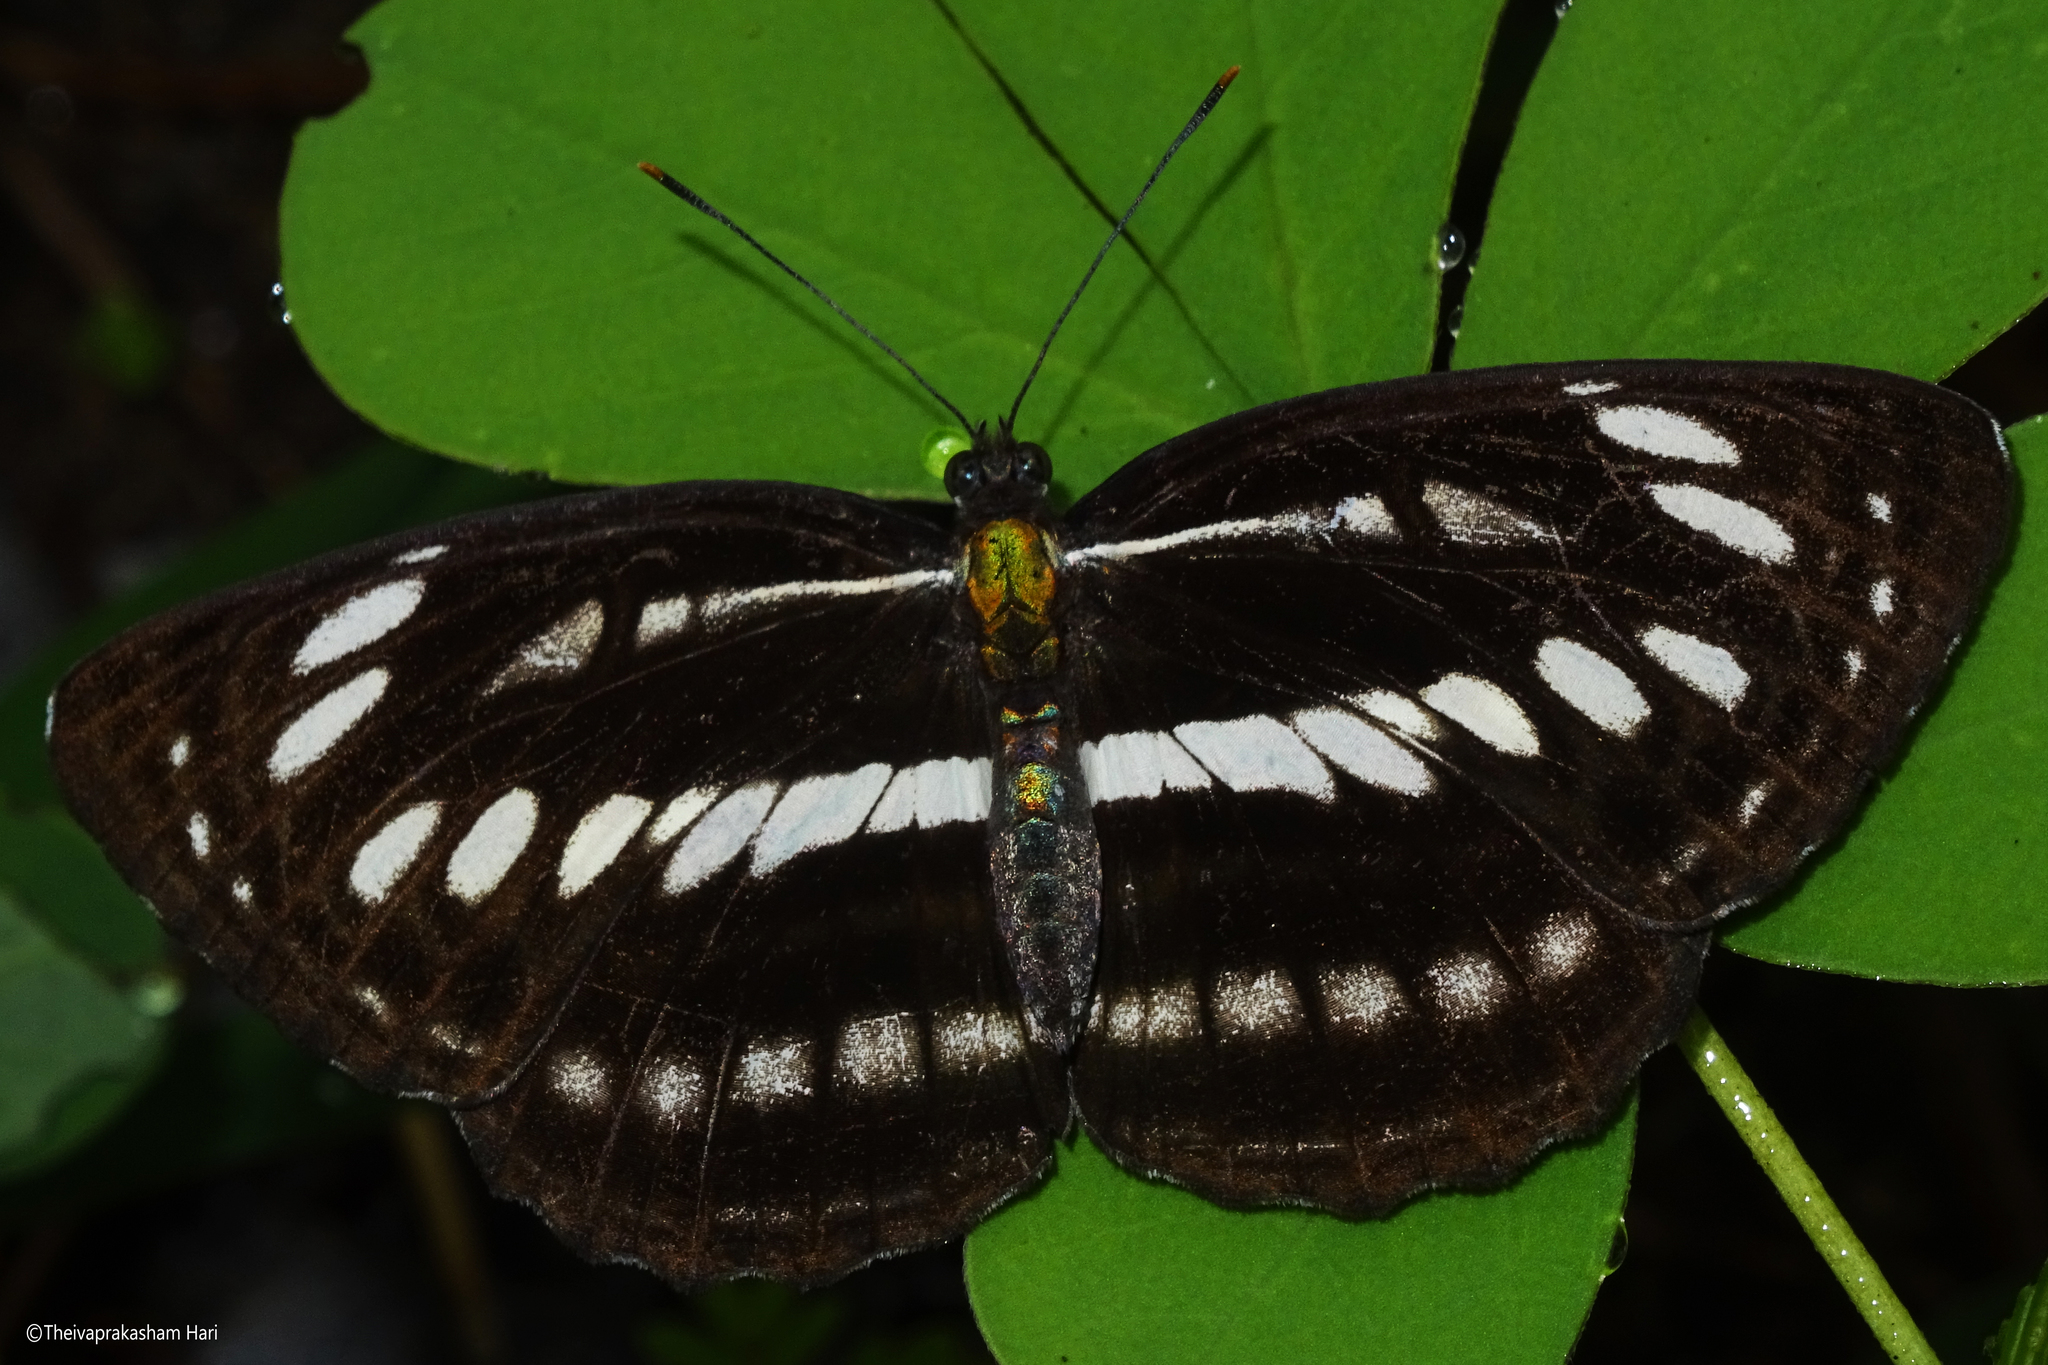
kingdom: Animalia
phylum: Arthropoda
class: Insecta
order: Lepidoptera
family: Nymphalidae
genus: Neptis
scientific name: Neptis hylas
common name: Common sailer
